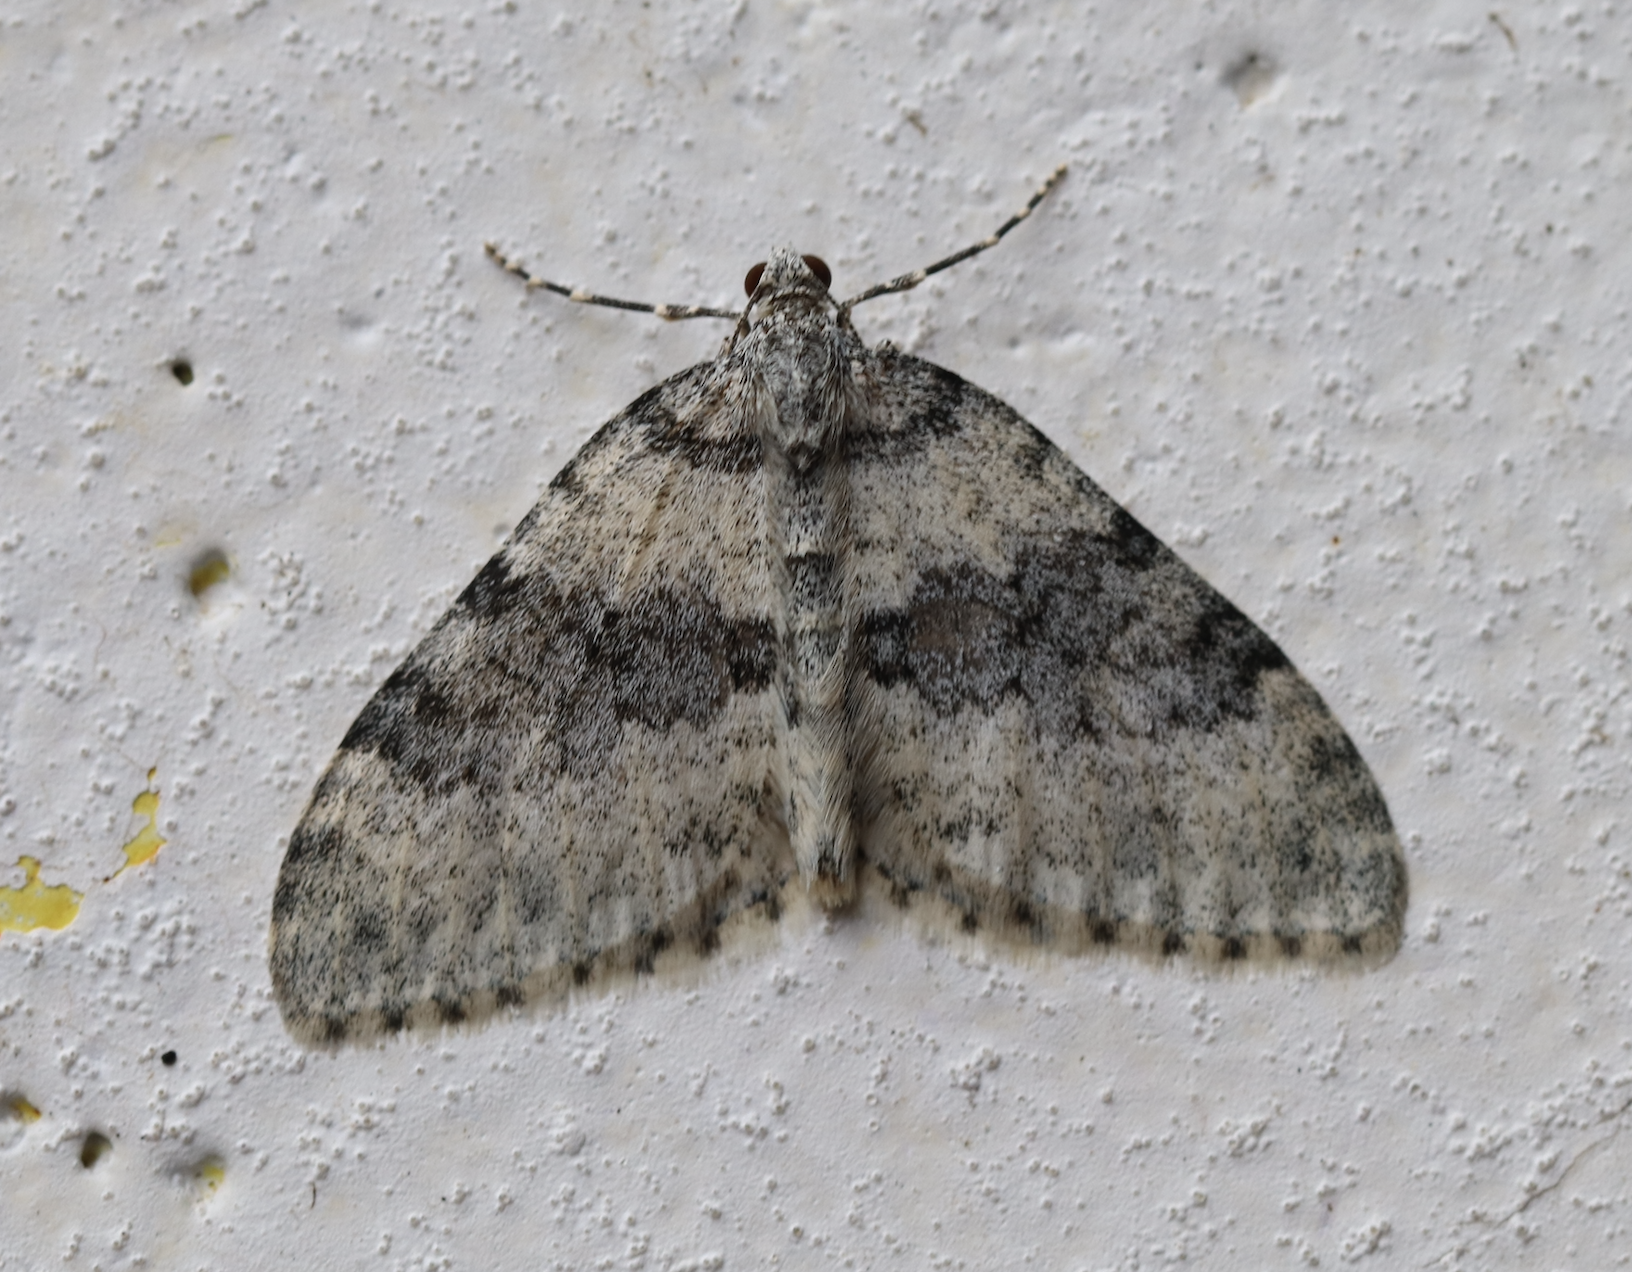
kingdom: Animalia
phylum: Arthropoda
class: Insecta
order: Lepidoptera
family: Geometridae
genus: Entephria
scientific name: Entephria cyanata
